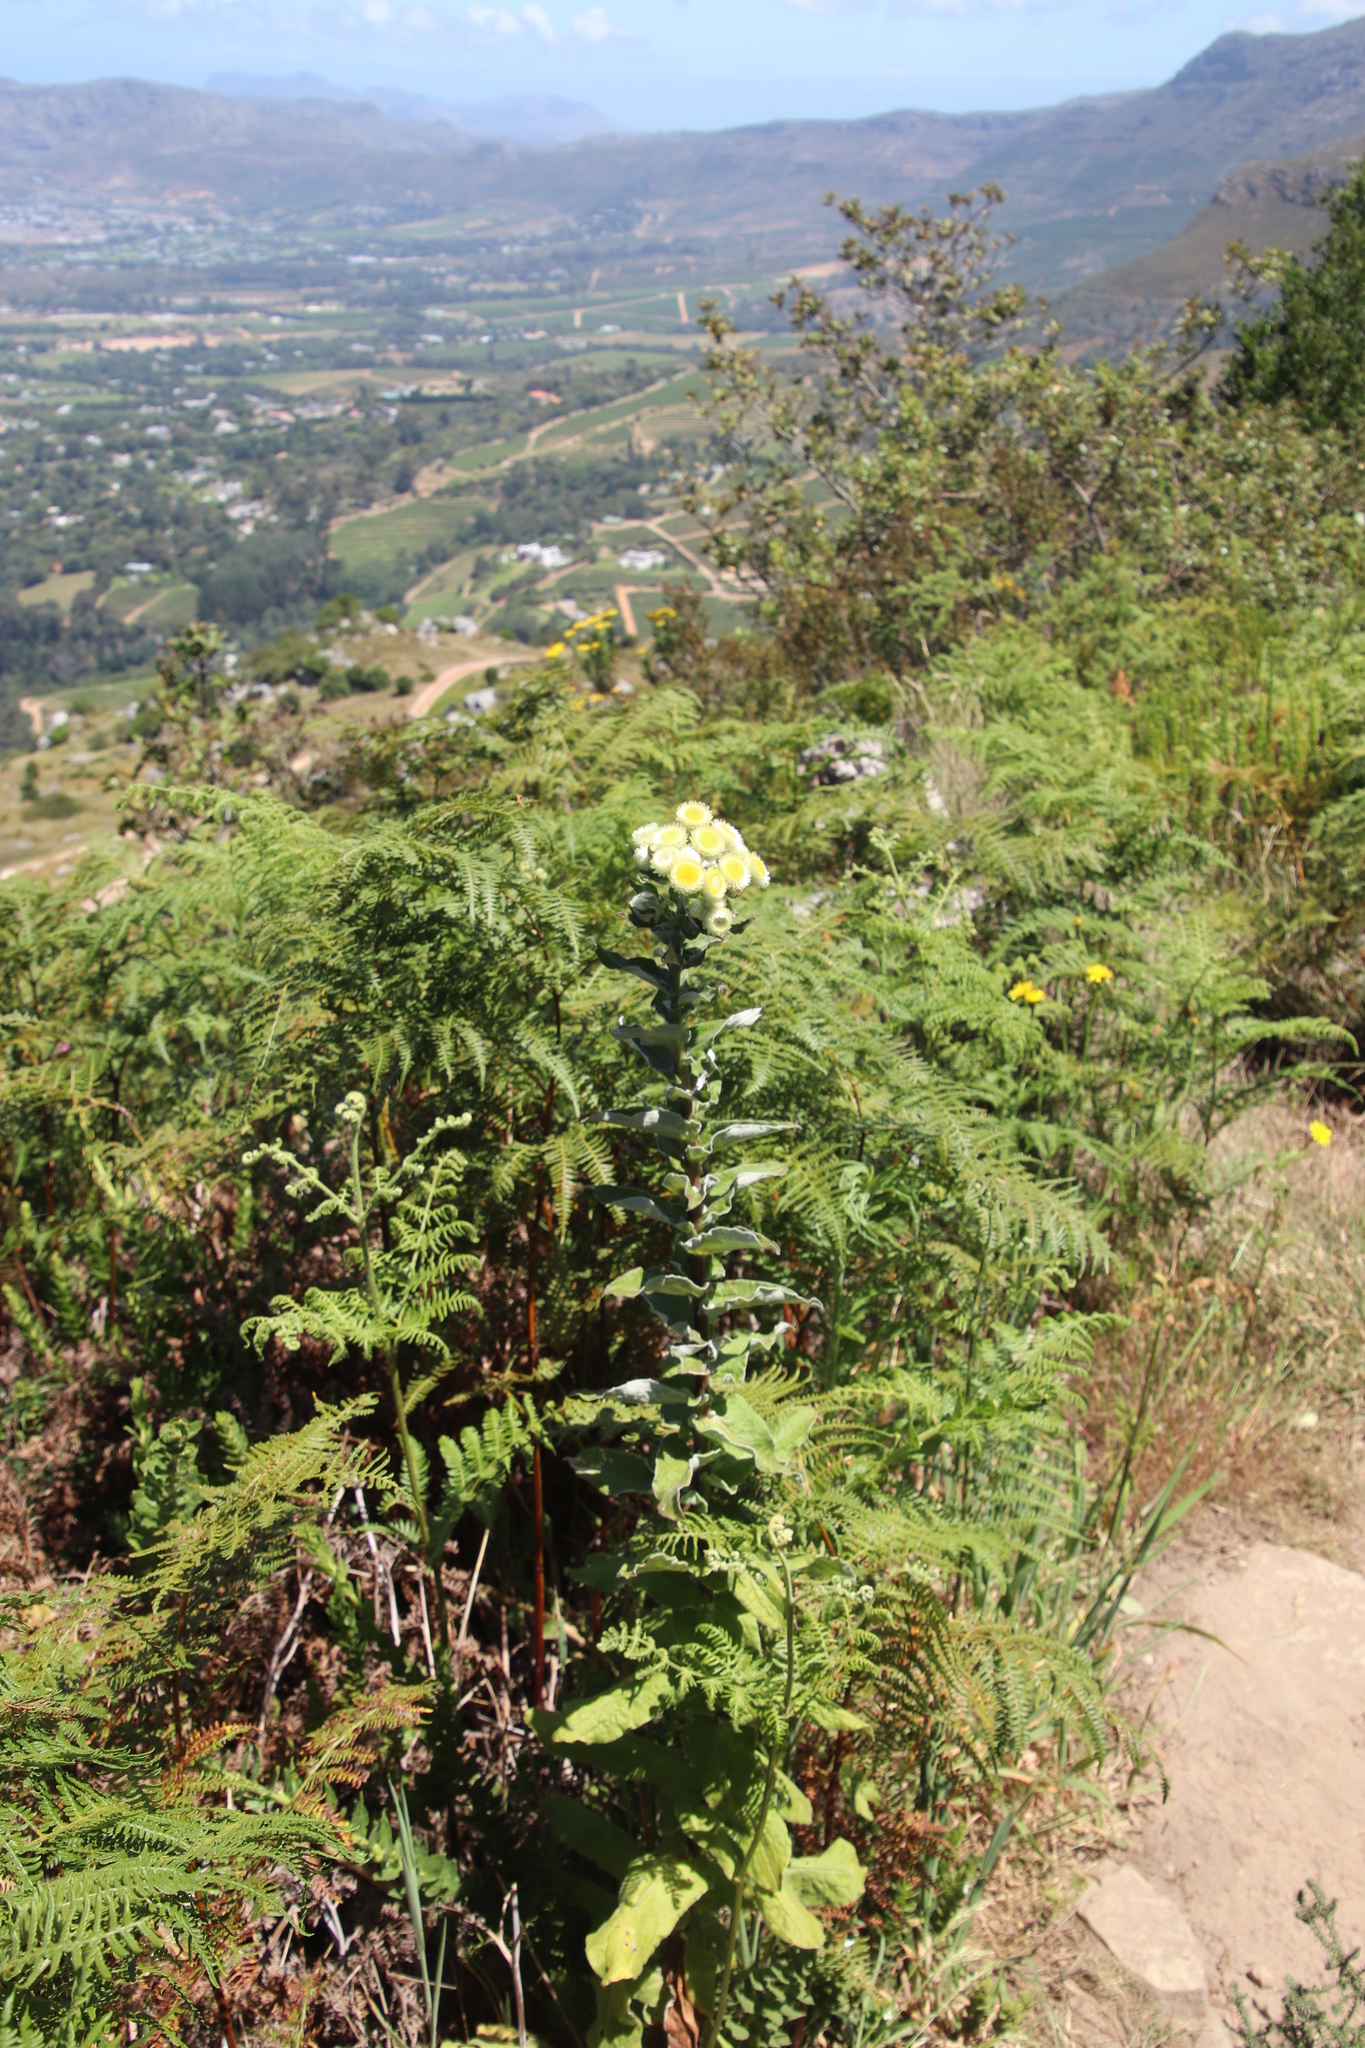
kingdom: Plantae
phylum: Tracheophyta
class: Magnoliopsida
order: Asterales
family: Asteraceae
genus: Helichrysum
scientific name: Helichrysum foetidum
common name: Stinking everlasting
